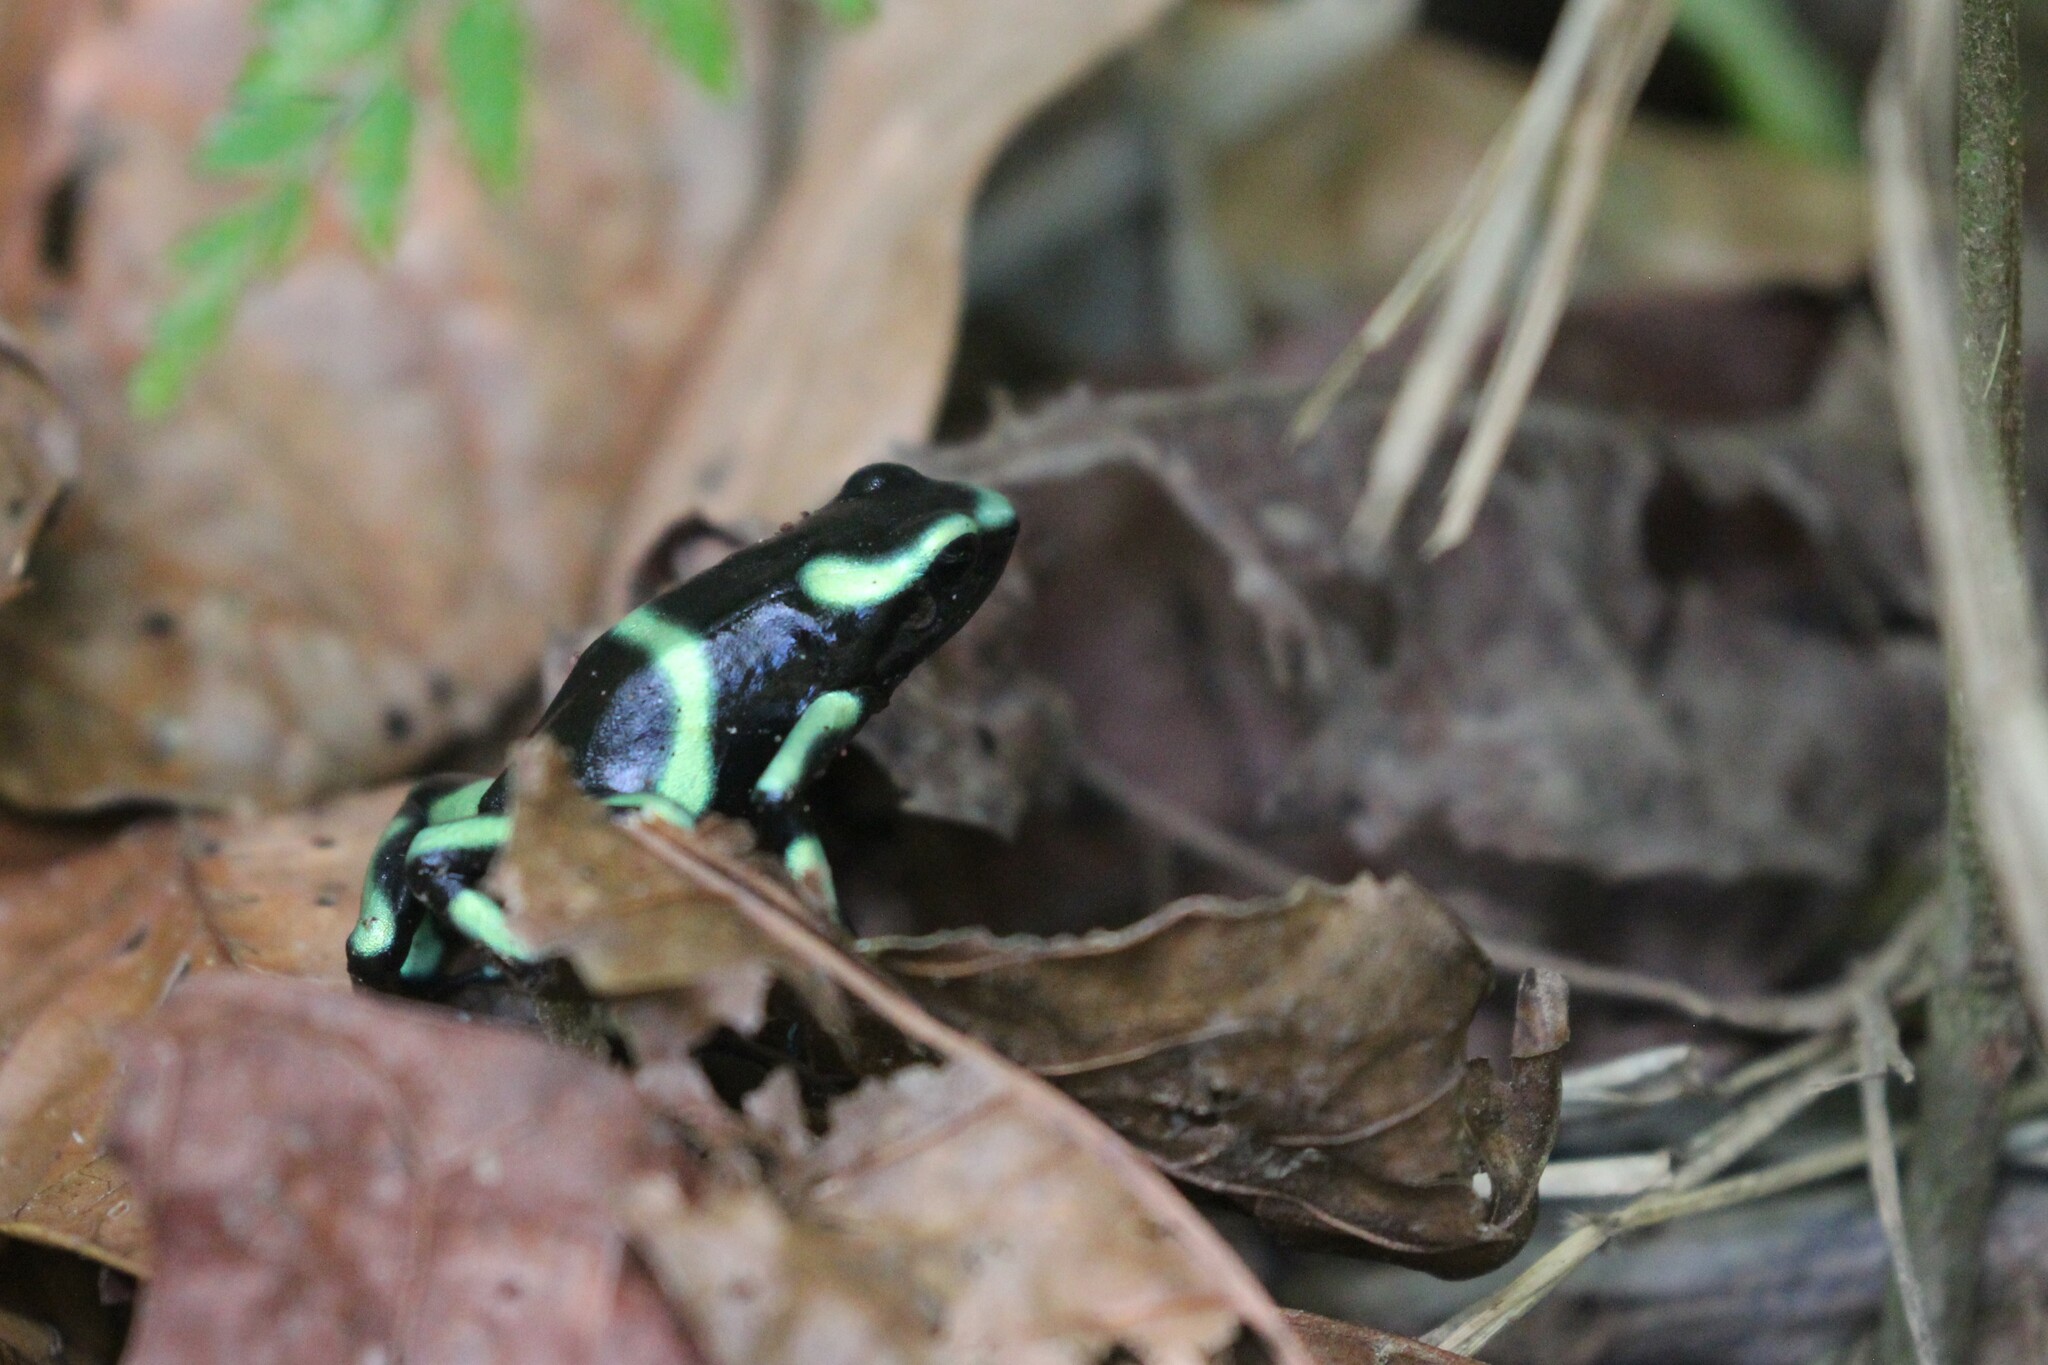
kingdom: Animalia
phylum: Chordata
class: Amphibia
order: Anura
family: Dendrobatidae
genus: Dendrobates
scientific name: Dendrobates auratus
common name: Green and black poison dart frog
